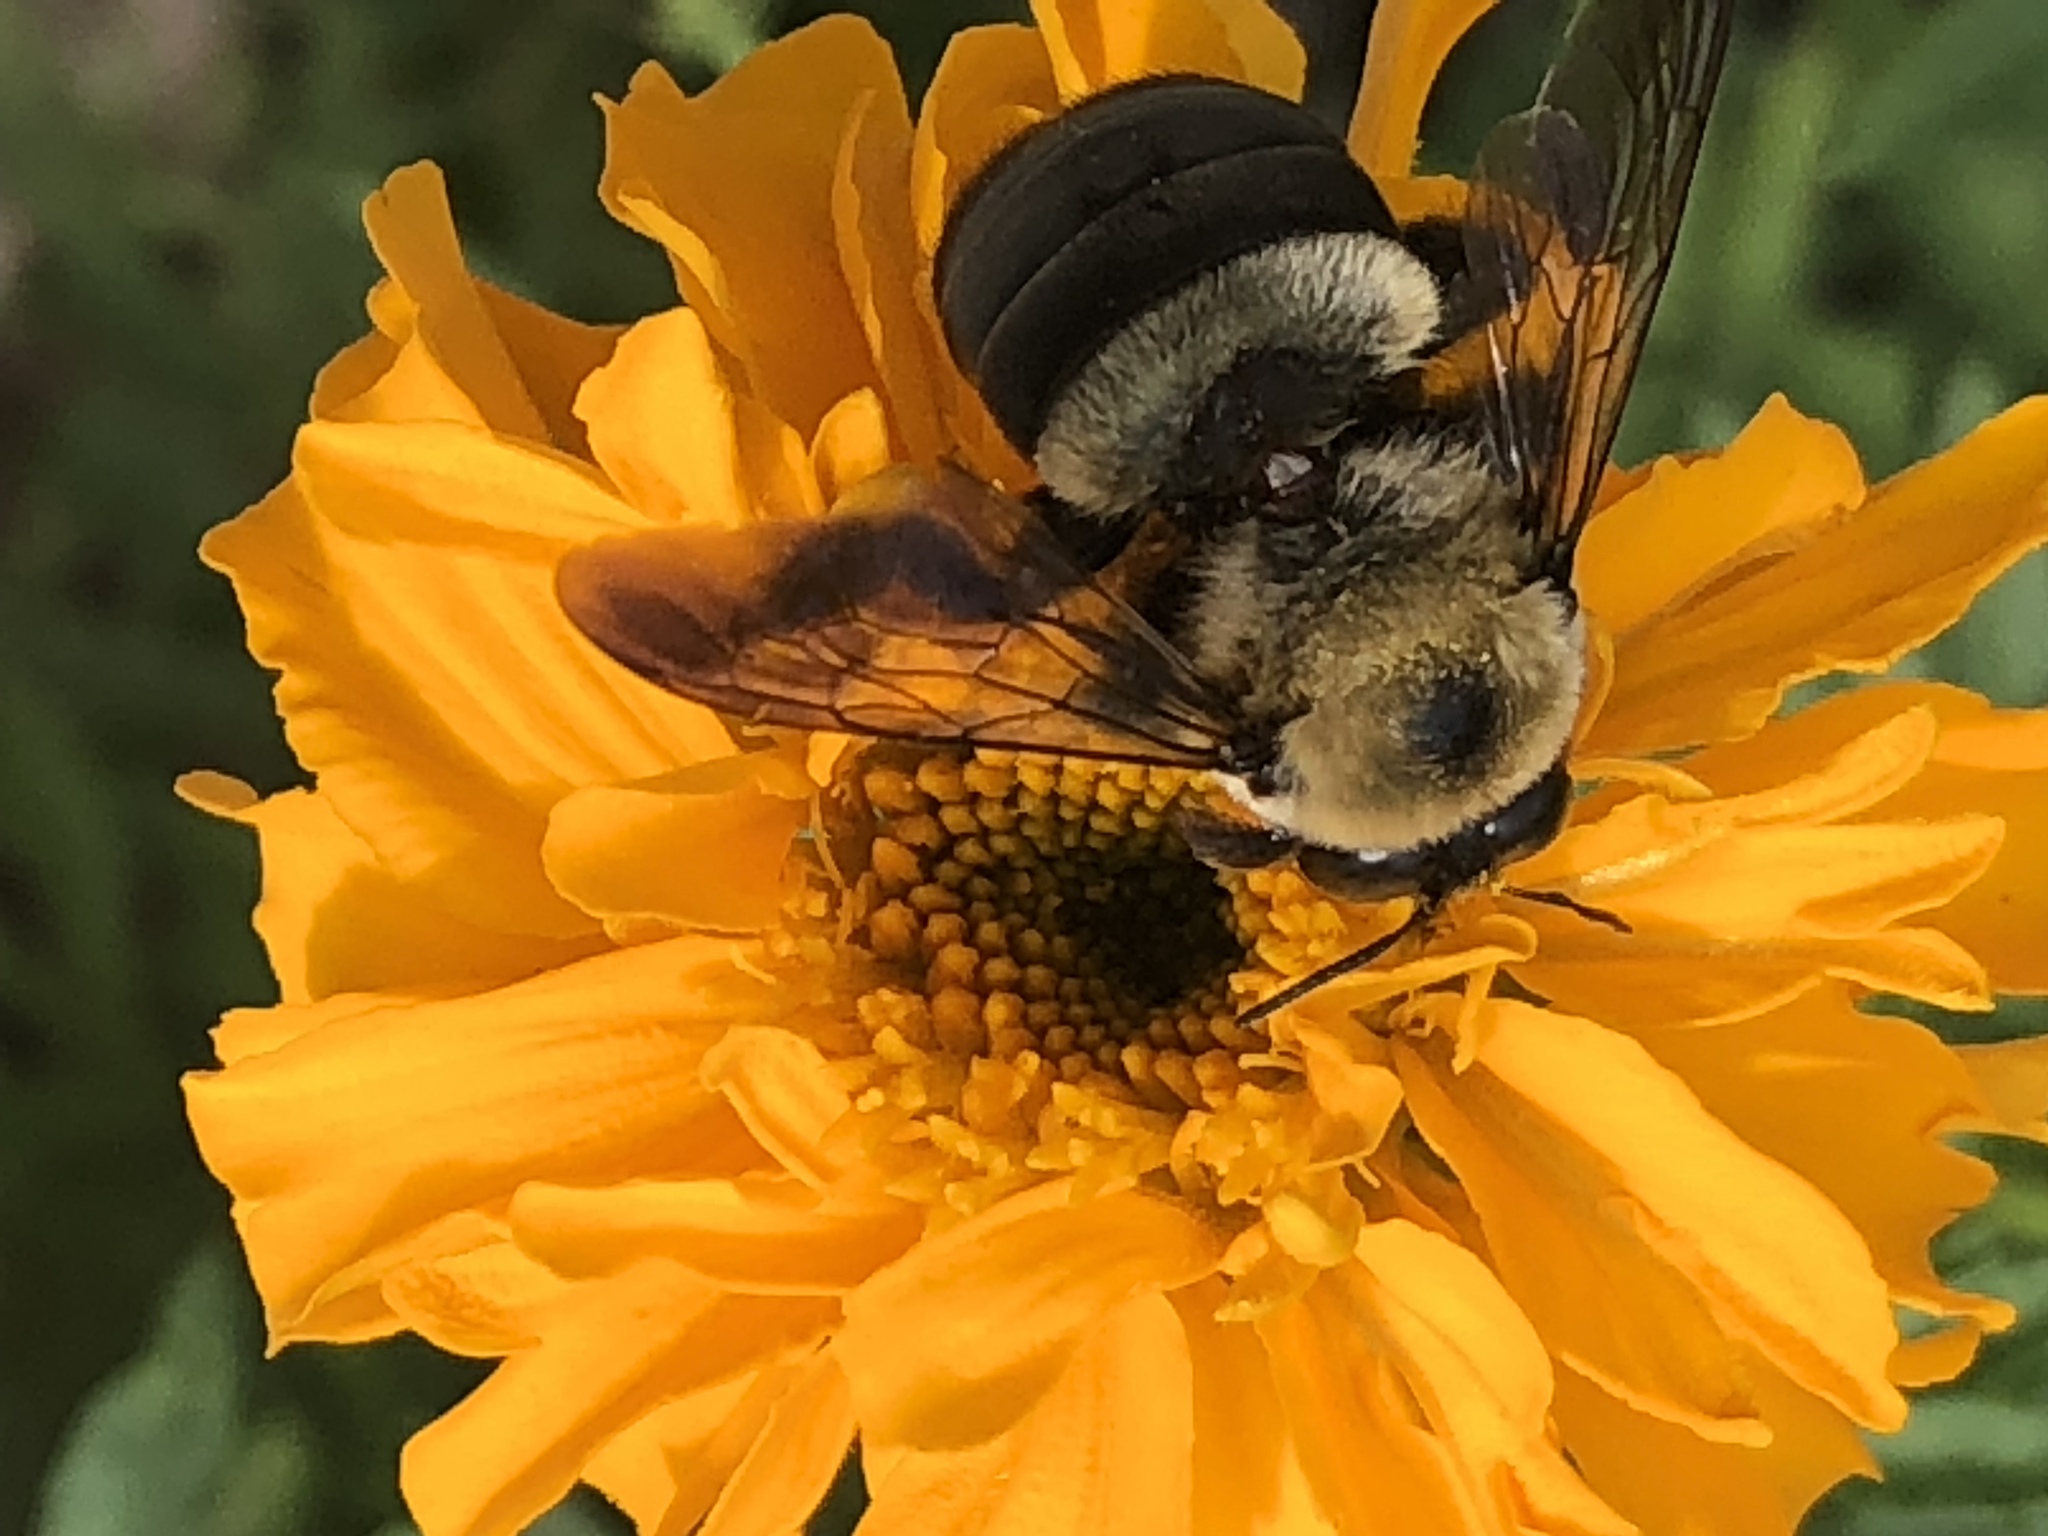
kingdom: Animalia
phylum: Arthropoda
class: Insecta
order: Hymenoptera
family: Apidae
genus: Xylocopa
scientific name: Xylocopa virginica
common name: Carpenter bee
